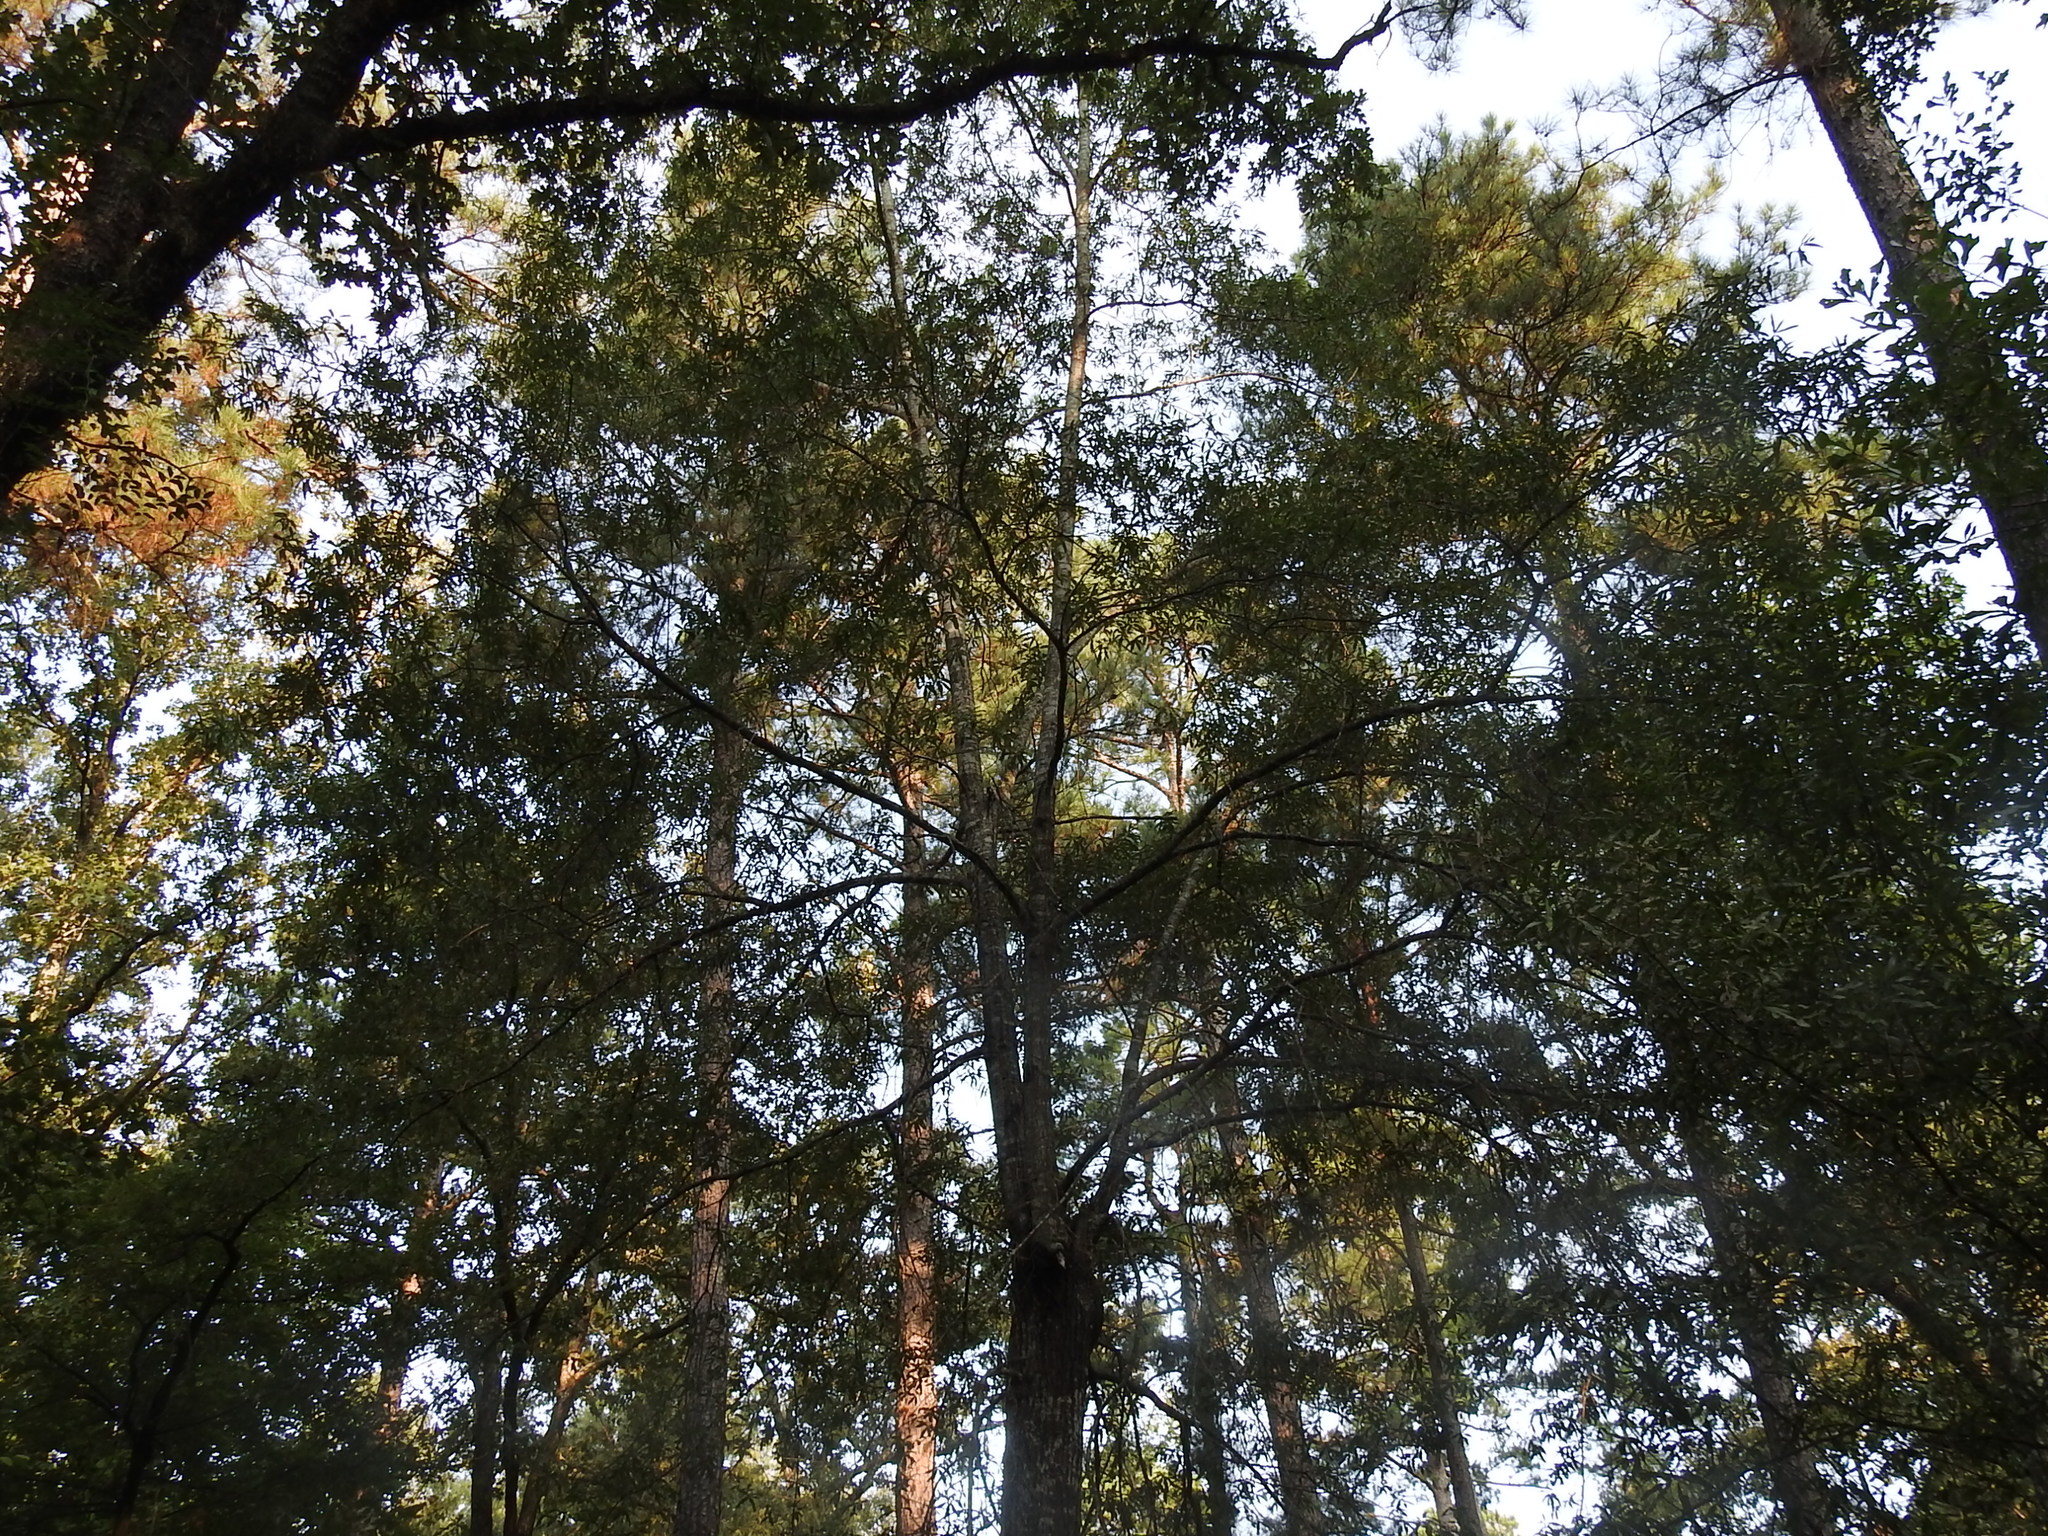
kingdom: Plantae
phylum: Tracheophyta
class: Magnoliopsida
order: Fagales
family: Fagaceae
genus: Quercus
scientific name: Quercus phellos
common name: Willow oak
